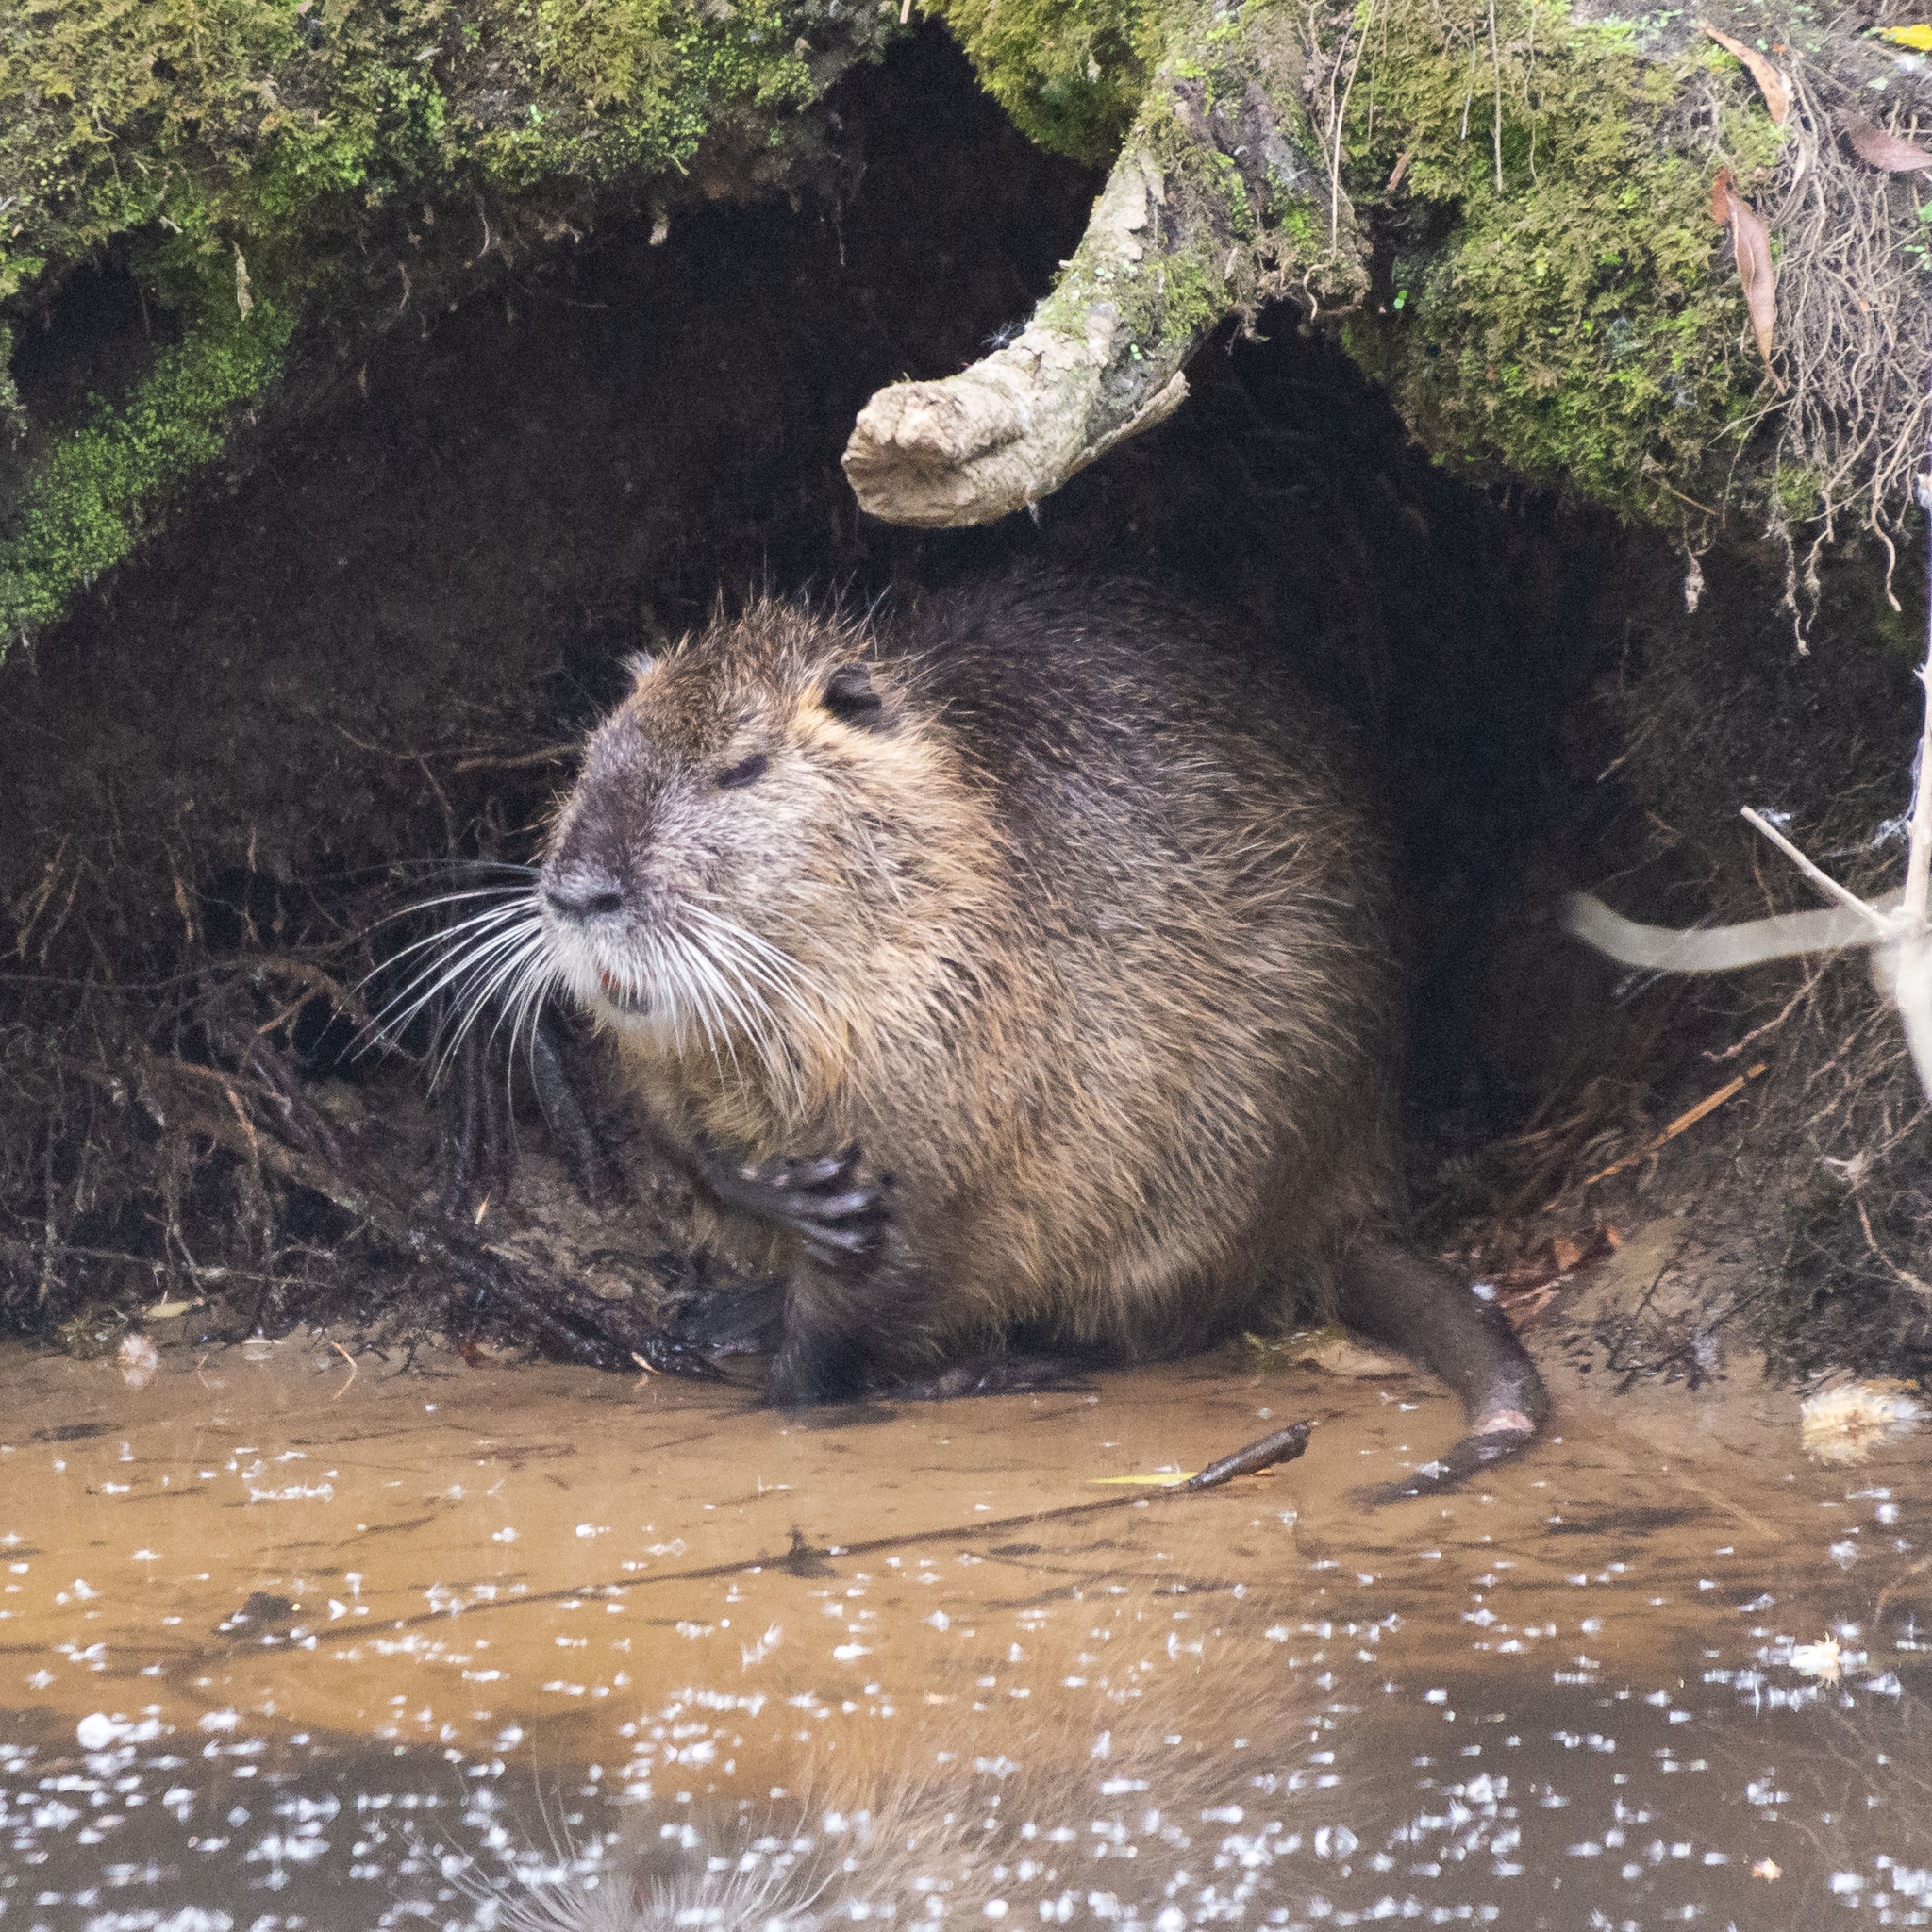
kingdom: Animalia
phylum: Chordata
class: Mammalia
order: Rodentia
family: Myocastoridae
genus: Myocastor
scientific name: Myocastor coypus
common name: Coypu
